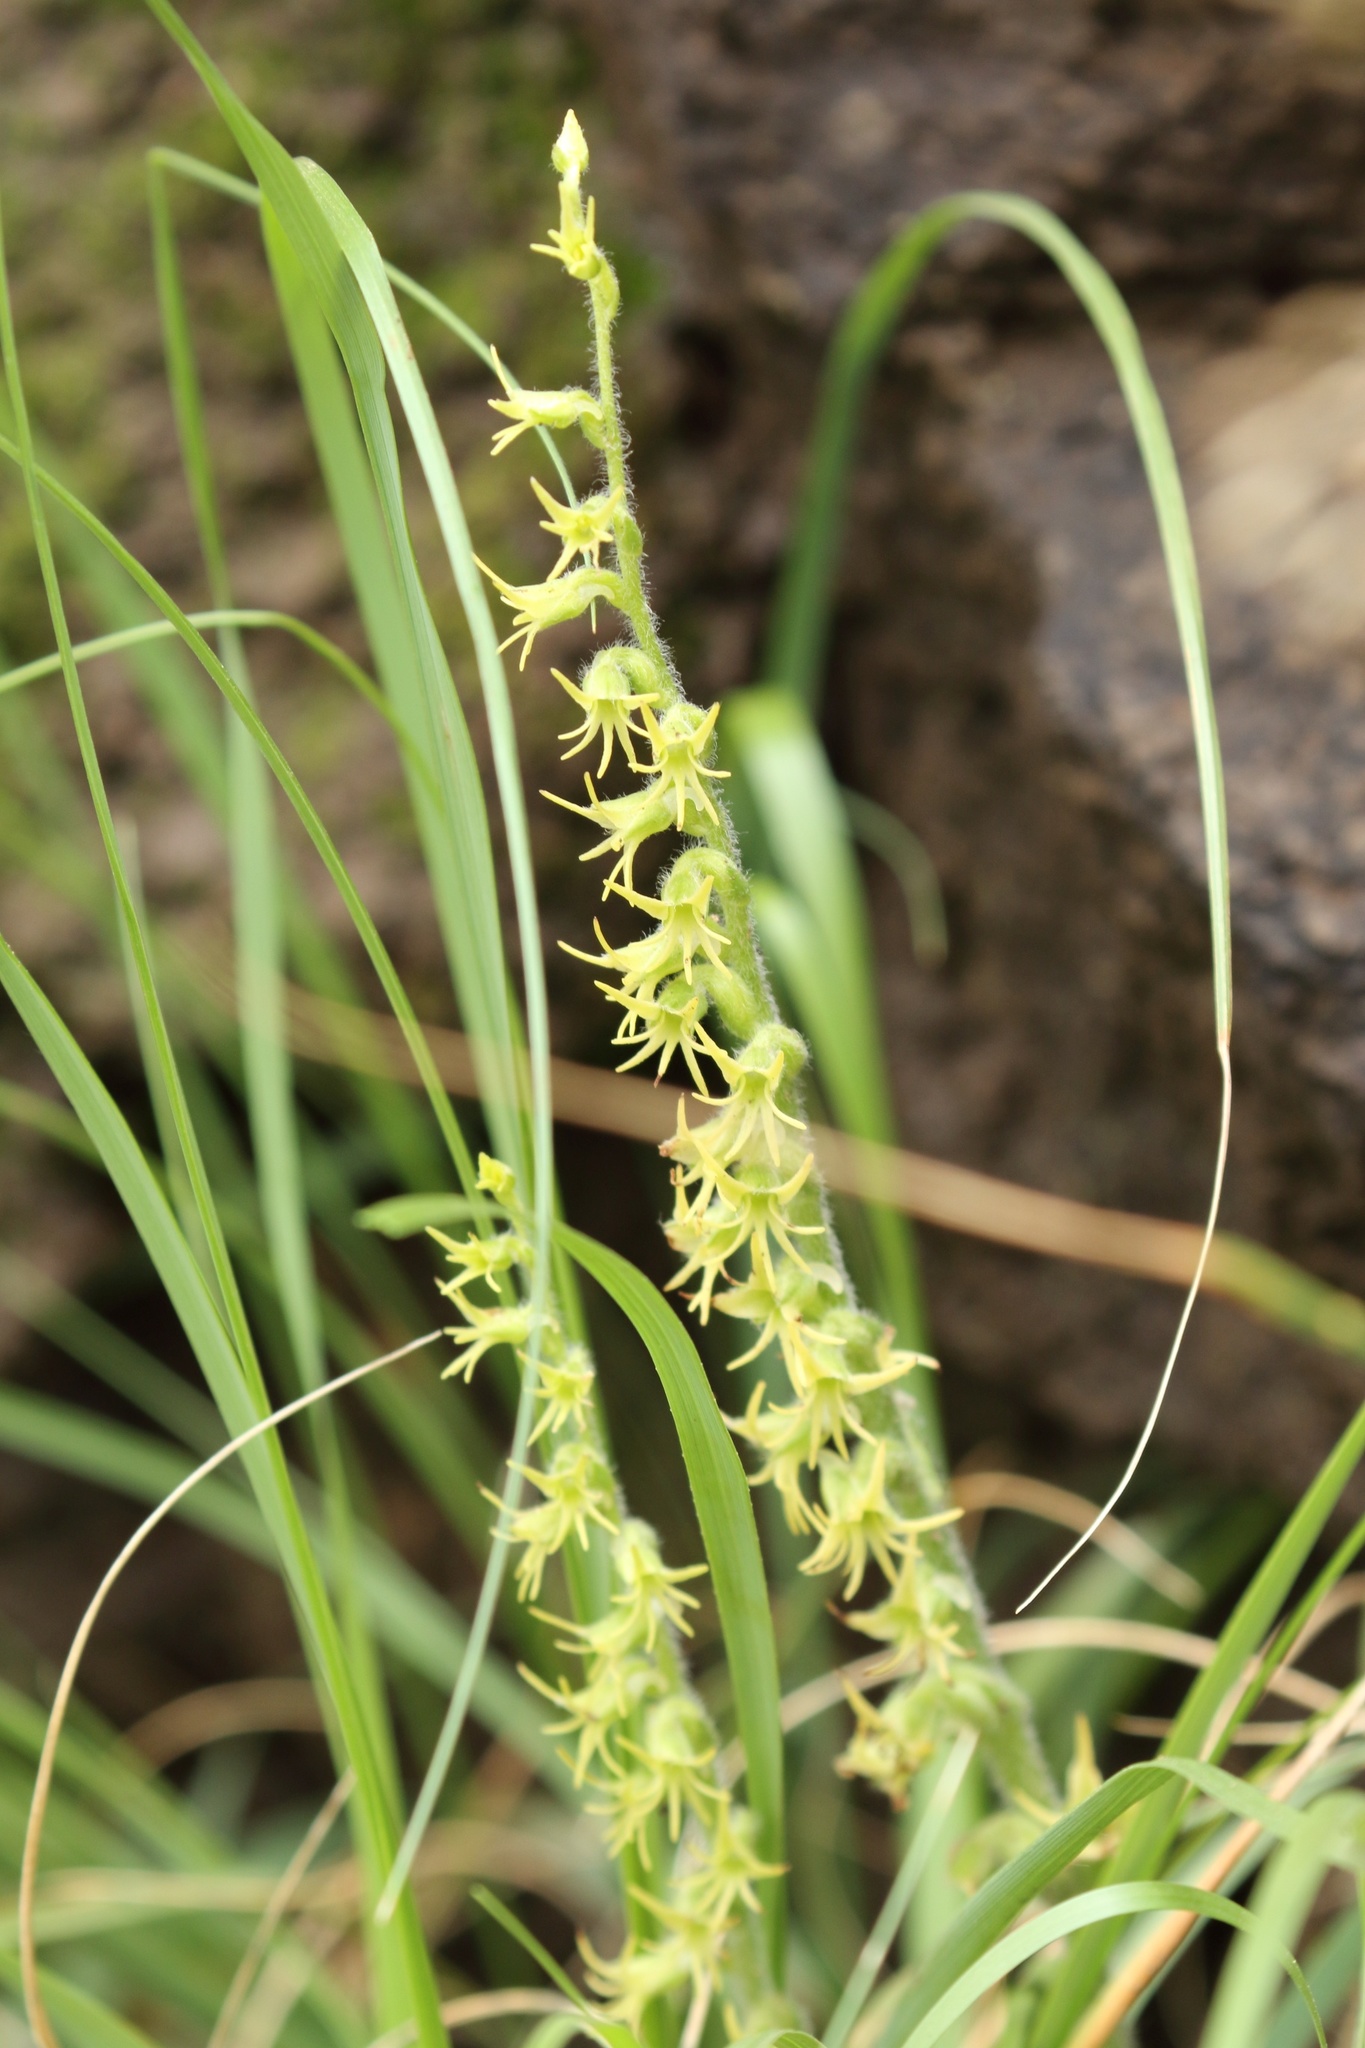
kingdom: Plantae
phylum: Tracheophyta
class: Liliopsida
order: Asparagales
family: Orchidaceae
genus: Holothrix
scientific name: Holothrix incurva
